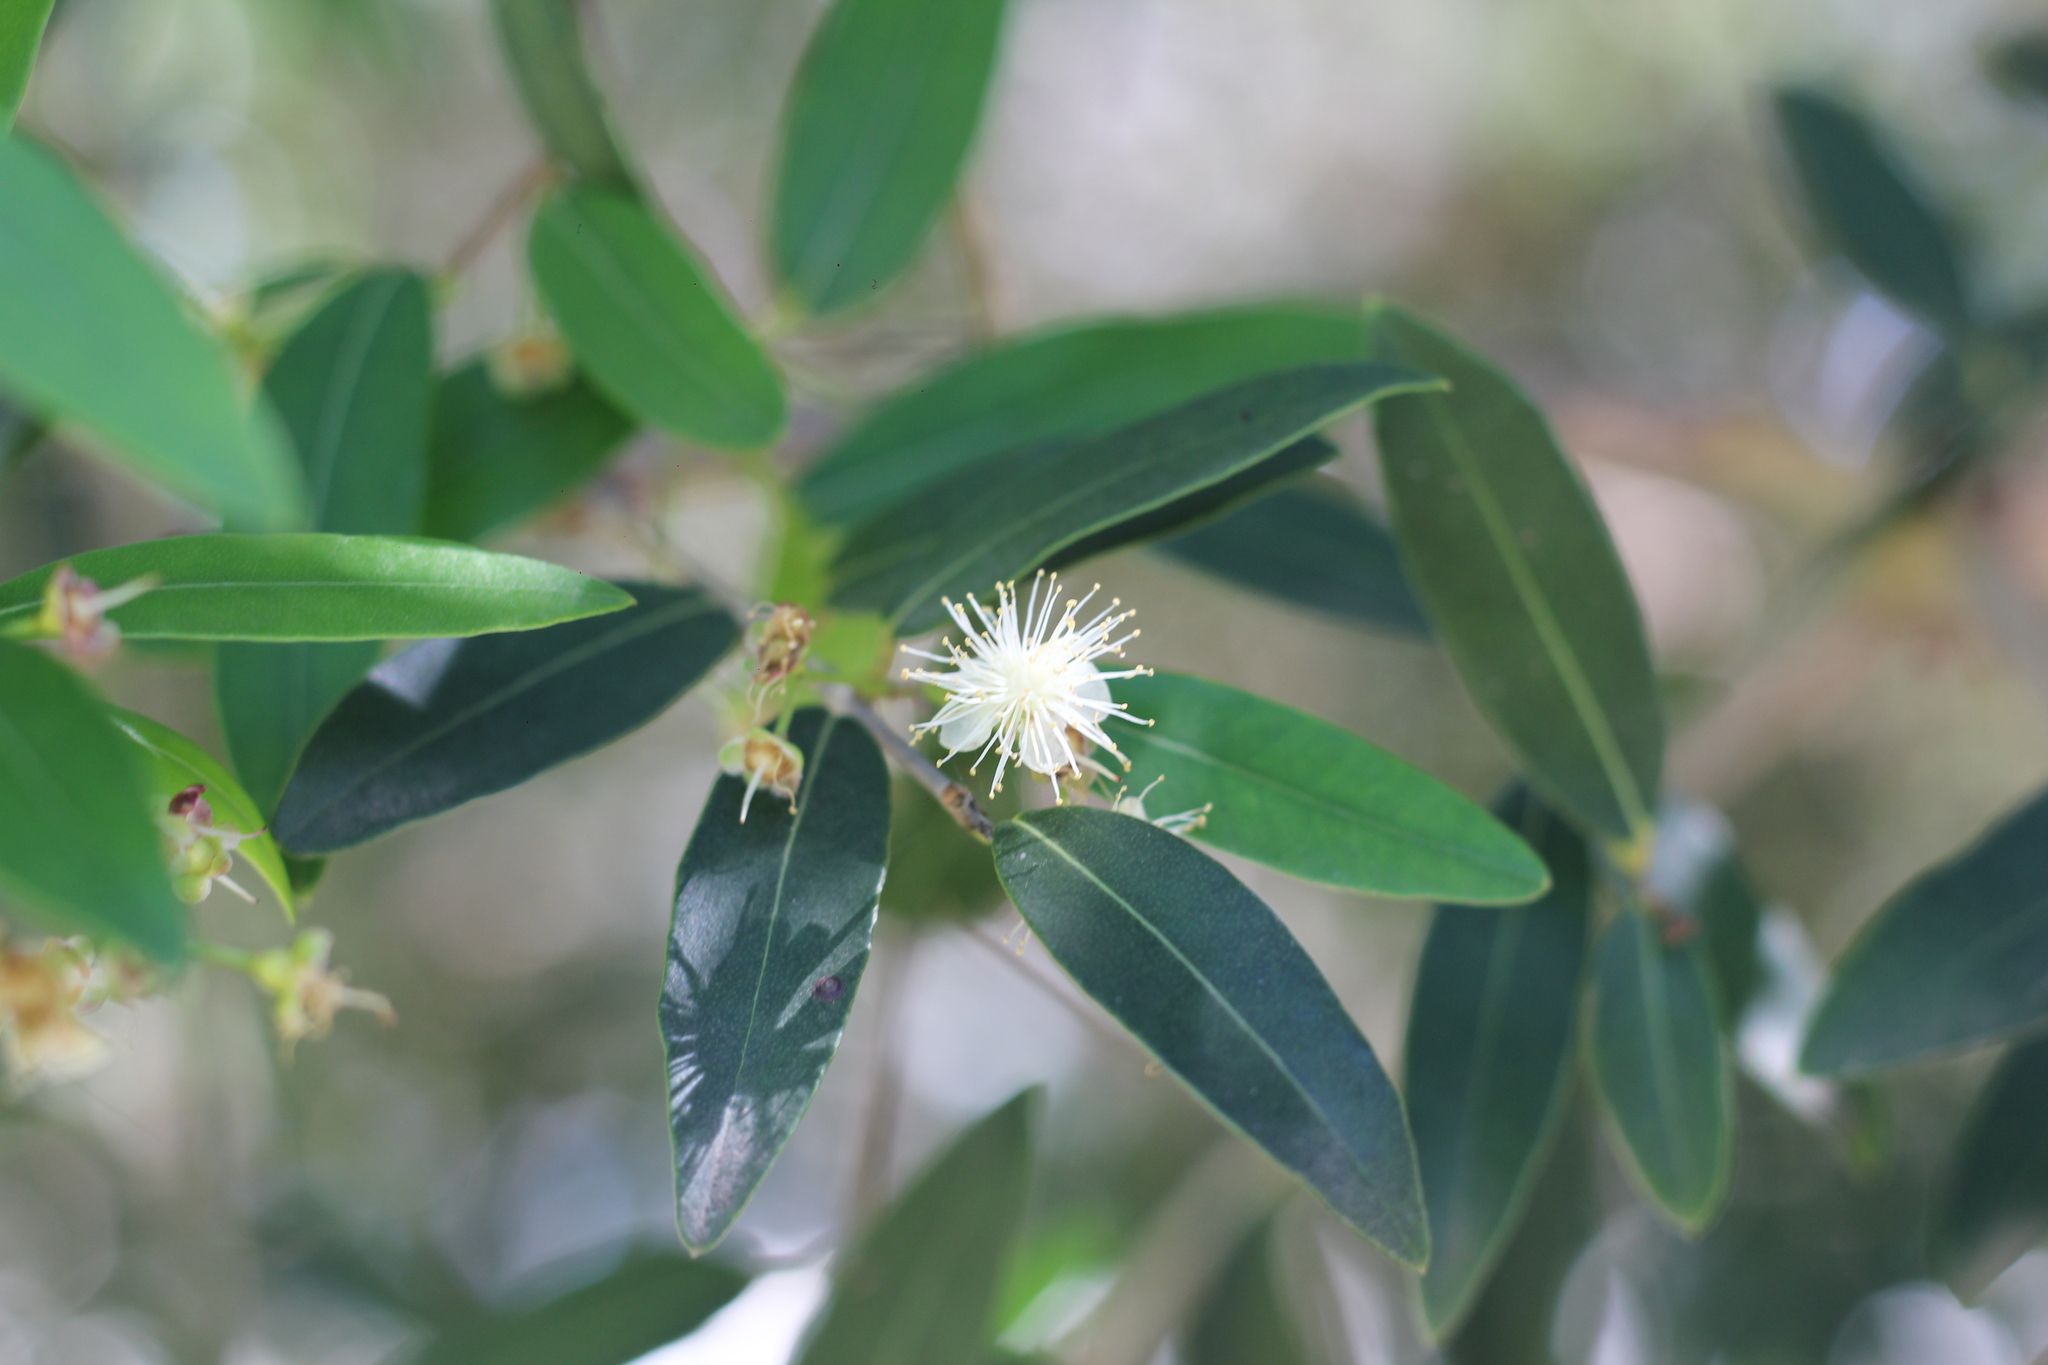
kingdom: Plantae
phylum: Tracheophyta
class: Magnoliopsida
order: Myrtales
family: Myrtaceae
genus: Blepharocalyx
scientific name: Blepharocalyx salicifolius
